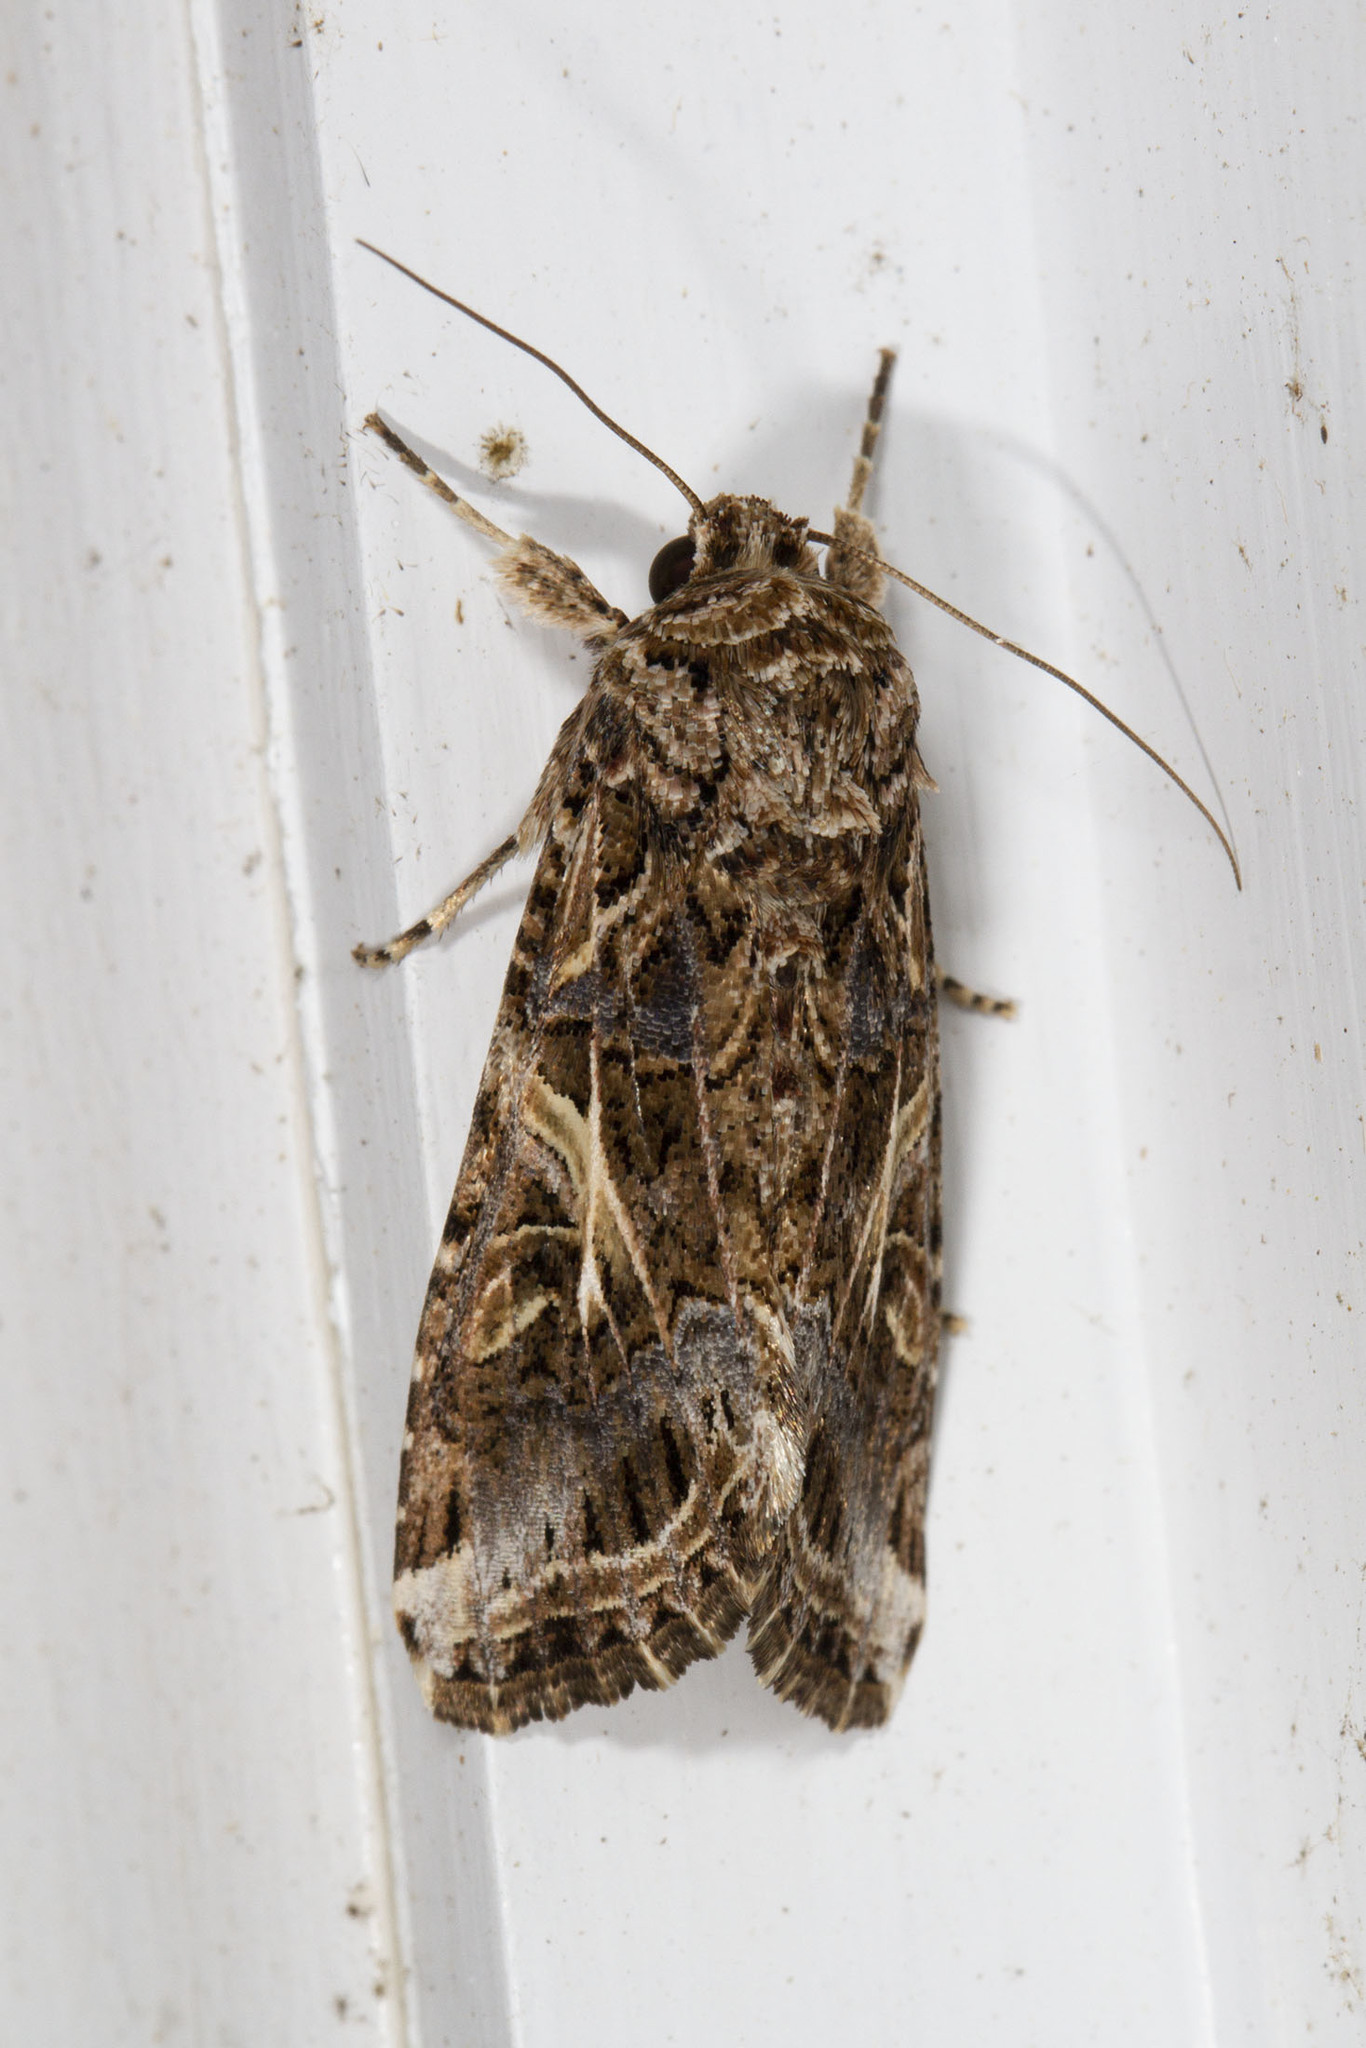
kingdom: Animalia
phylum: Arthropoda
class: Insecta
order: Lepidoptera
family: Noctuidae
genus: Spodoptera
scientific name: Spodoptera ornithogalli
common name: Yellow-striped armyworm
